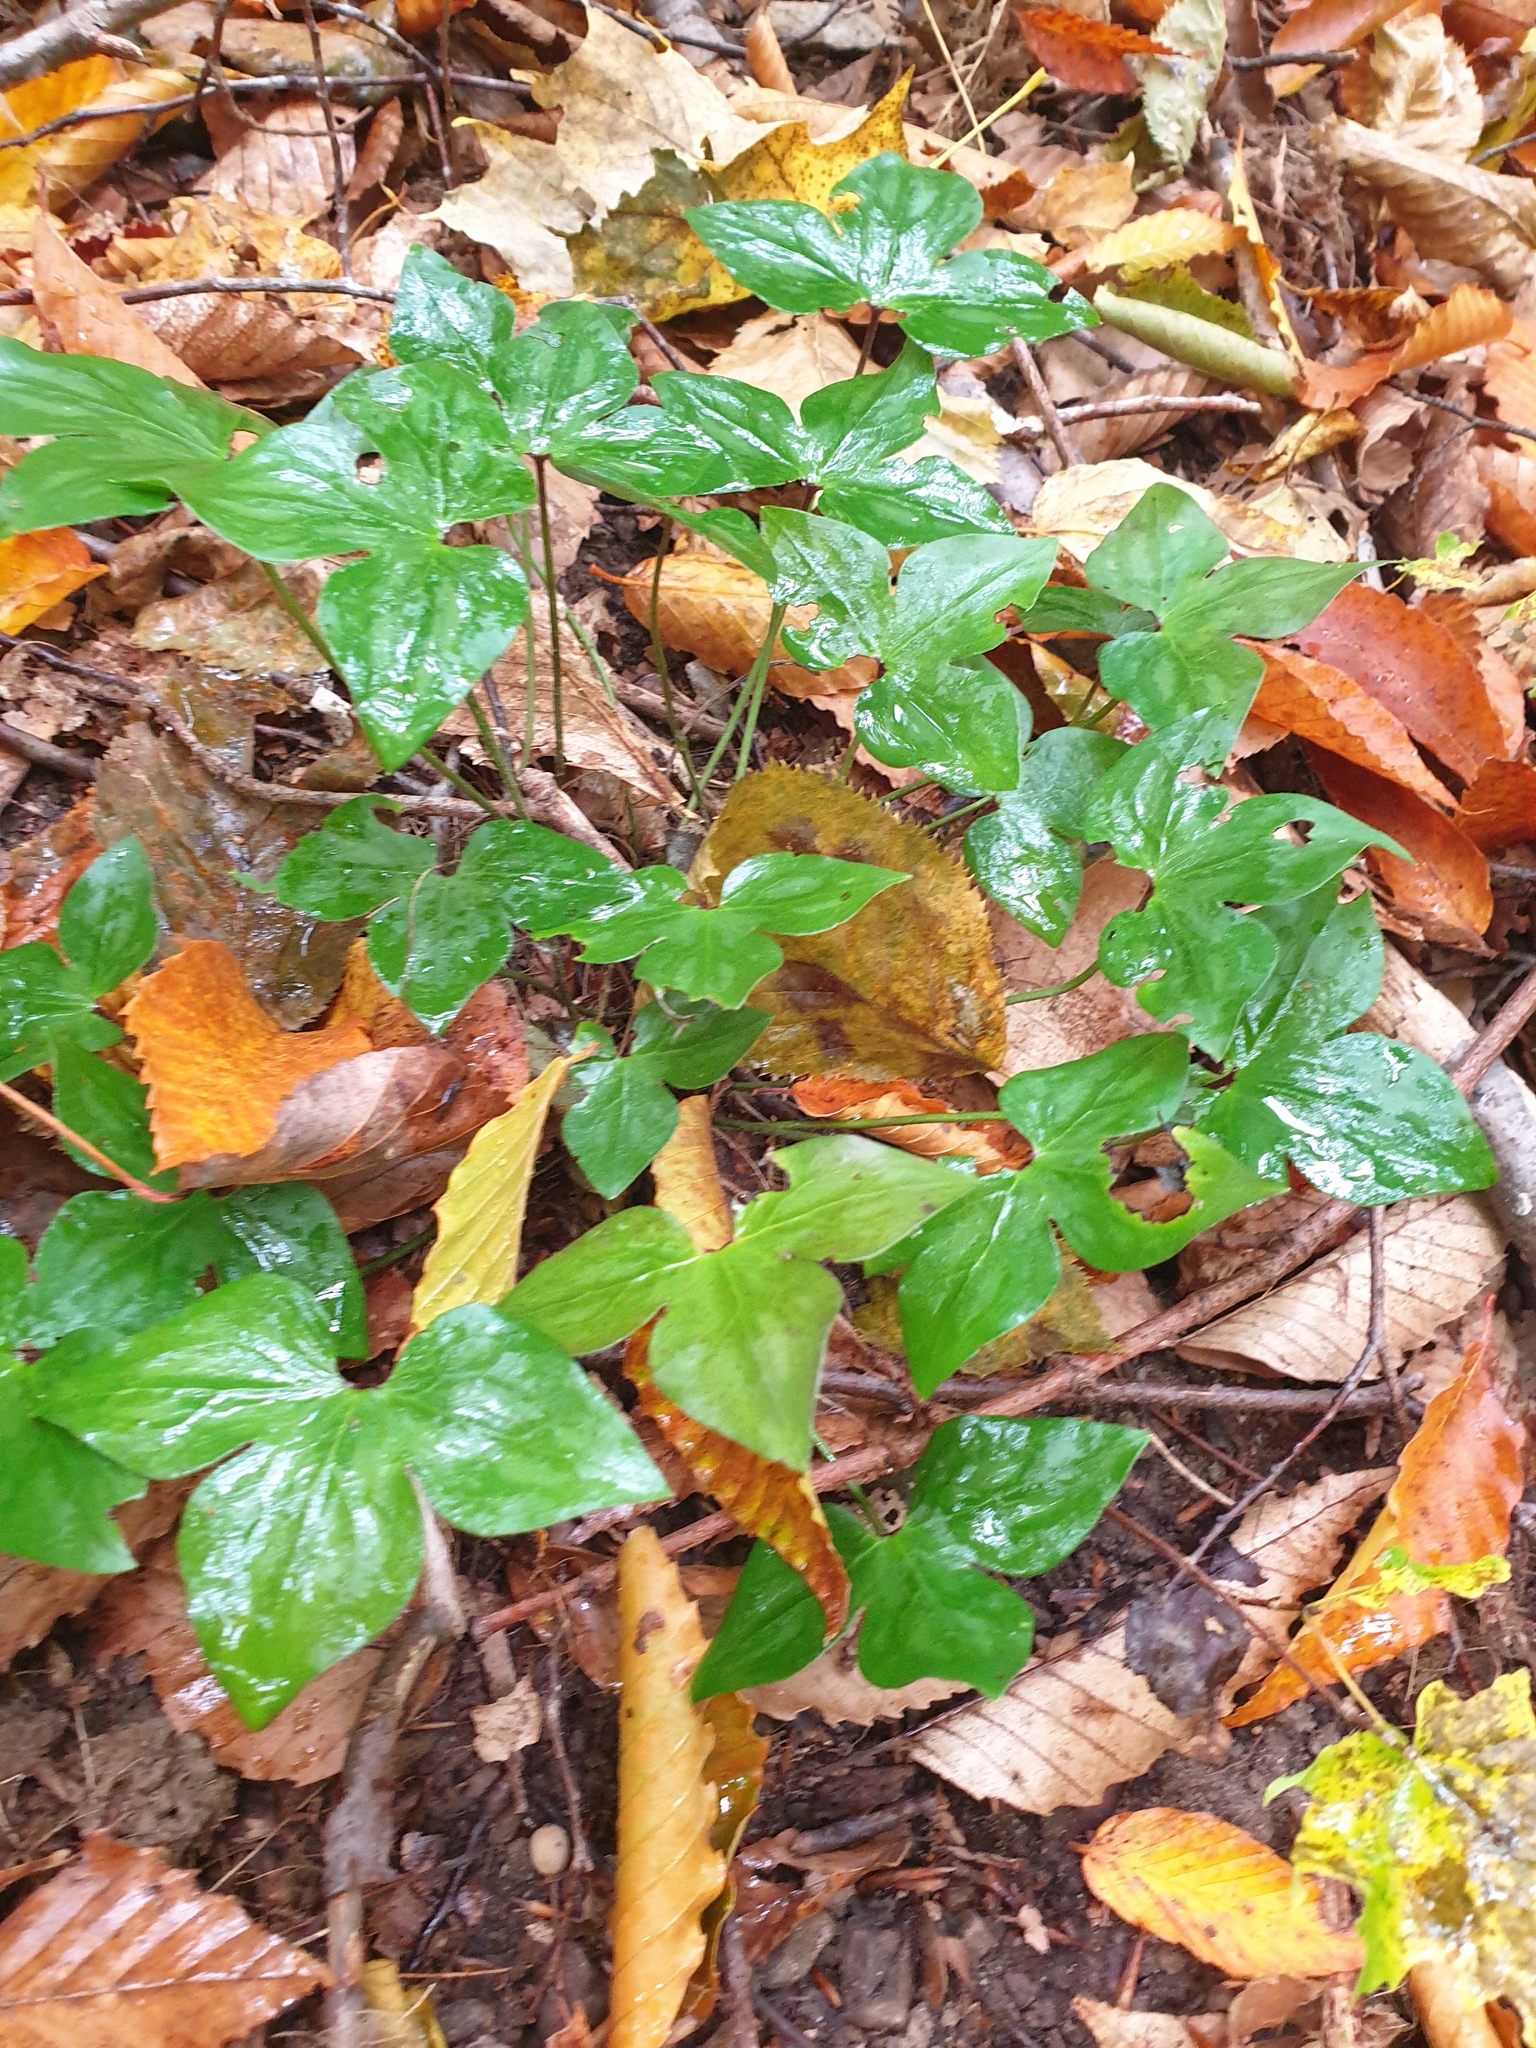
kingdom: Plantae
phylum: Tracheophyta
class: Magnoliopsida
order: Ranunculales
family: Ranunculaceae
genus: Hepatica
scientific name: Hepatica acutiloba
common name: Sharp-lobed hepatica
